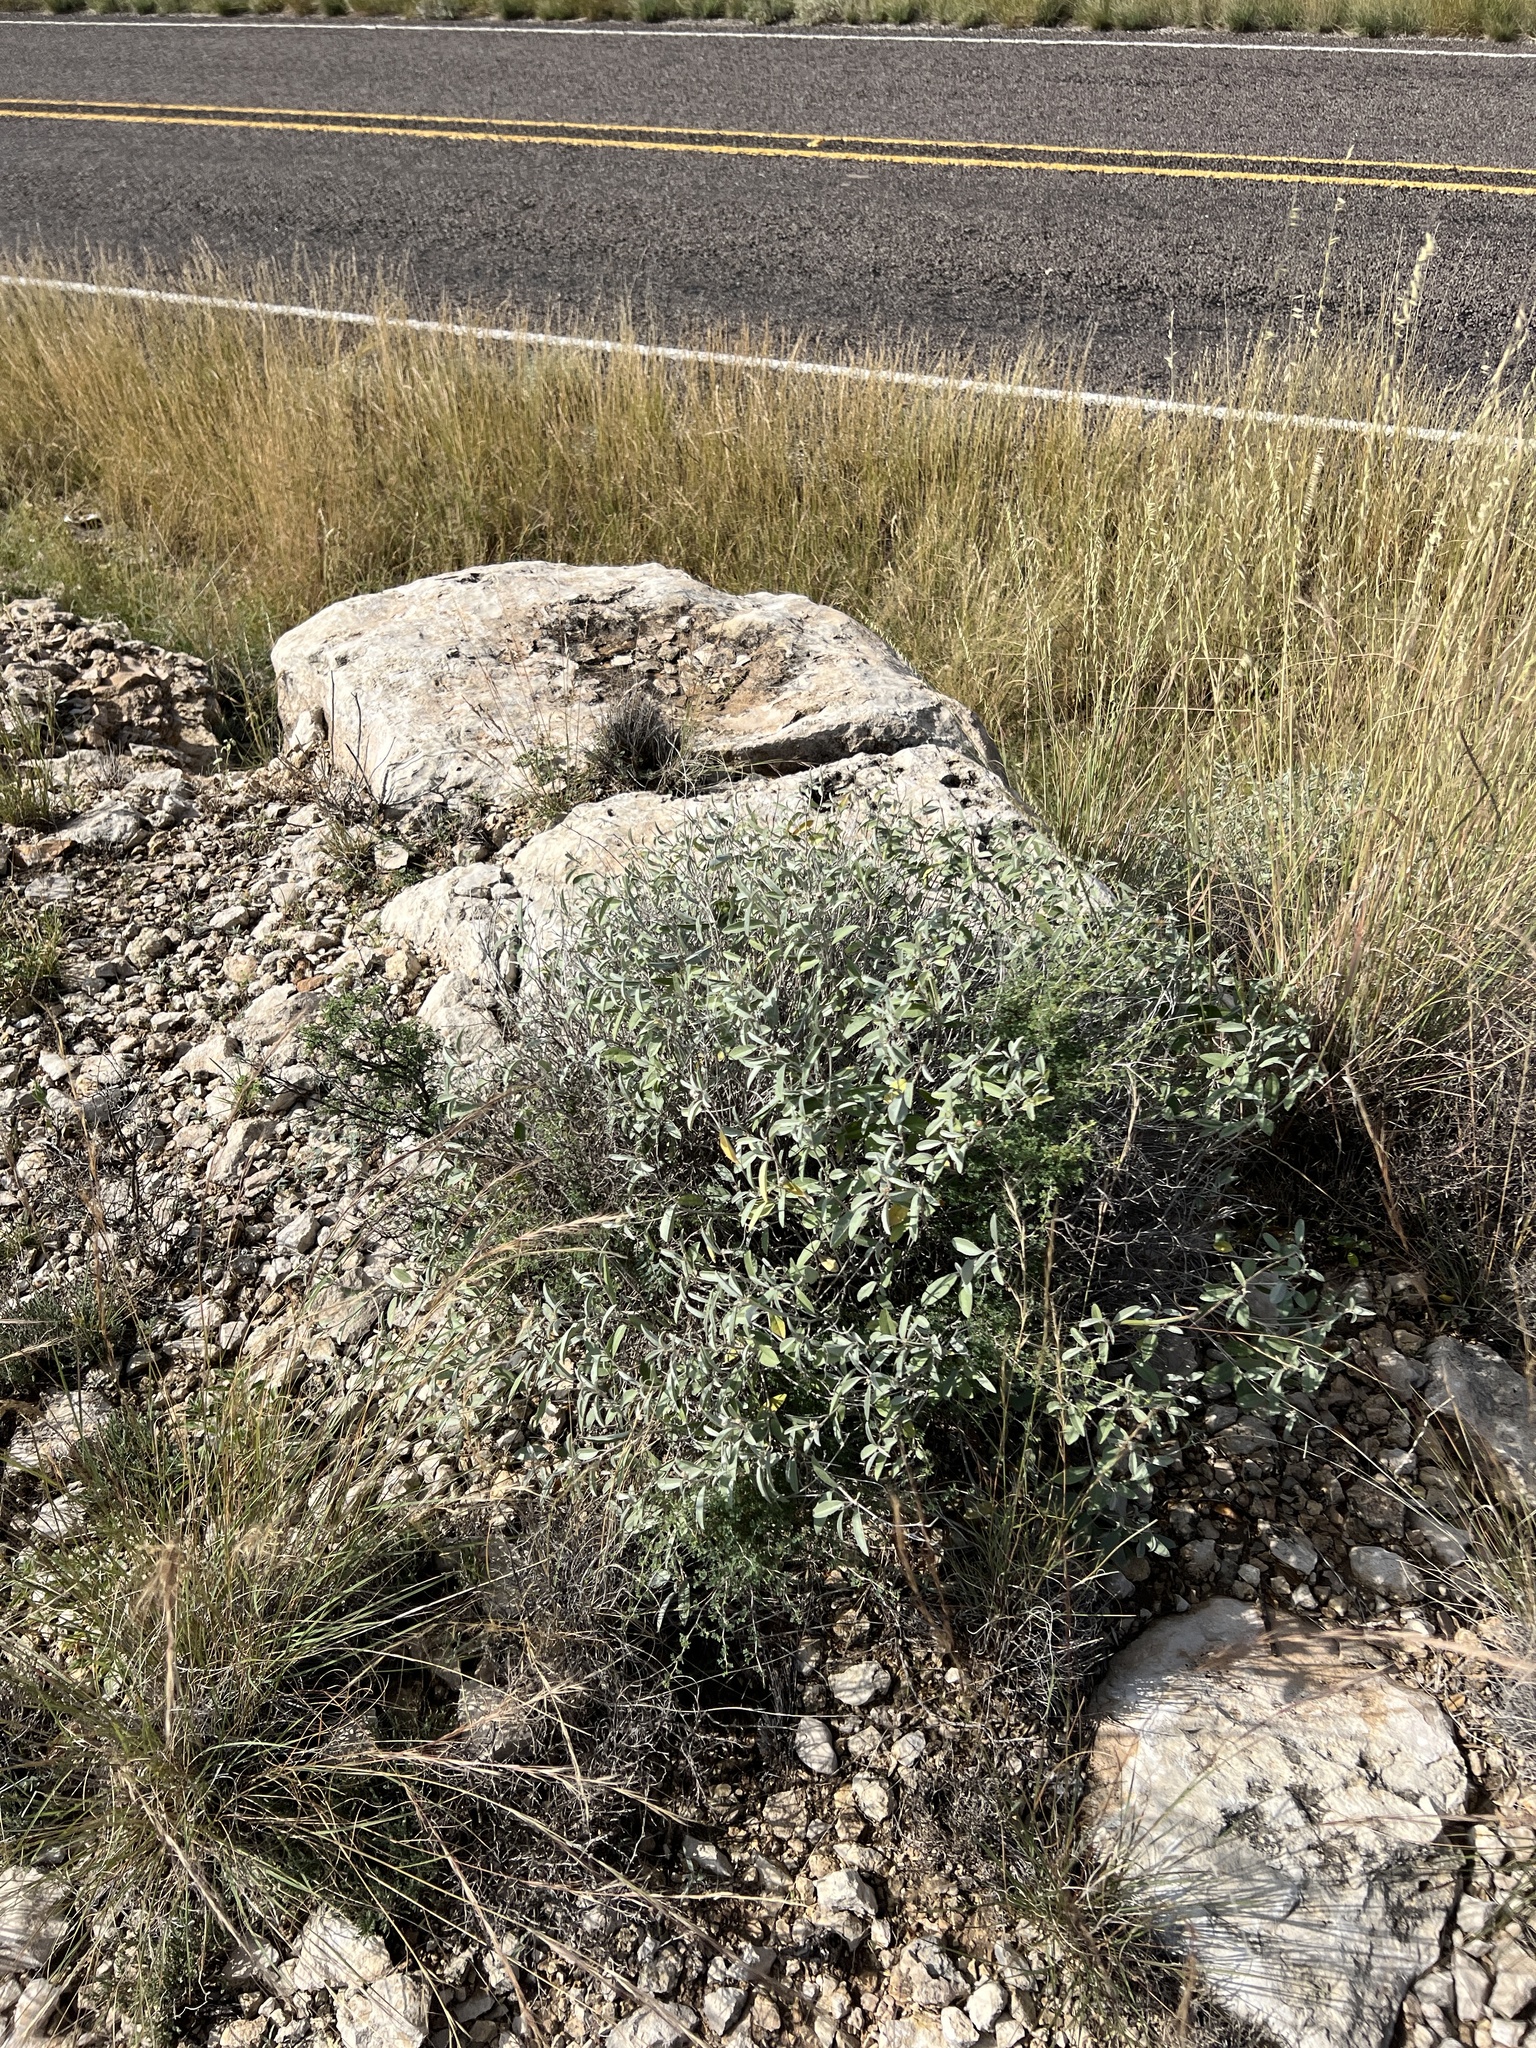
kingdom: Plantae
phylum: Tracheophyta
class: Magnoliopsida
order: Malpighiales
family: Euphorbiaceae
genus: Croton
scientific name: Croton dioicus
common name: Grassland croton
